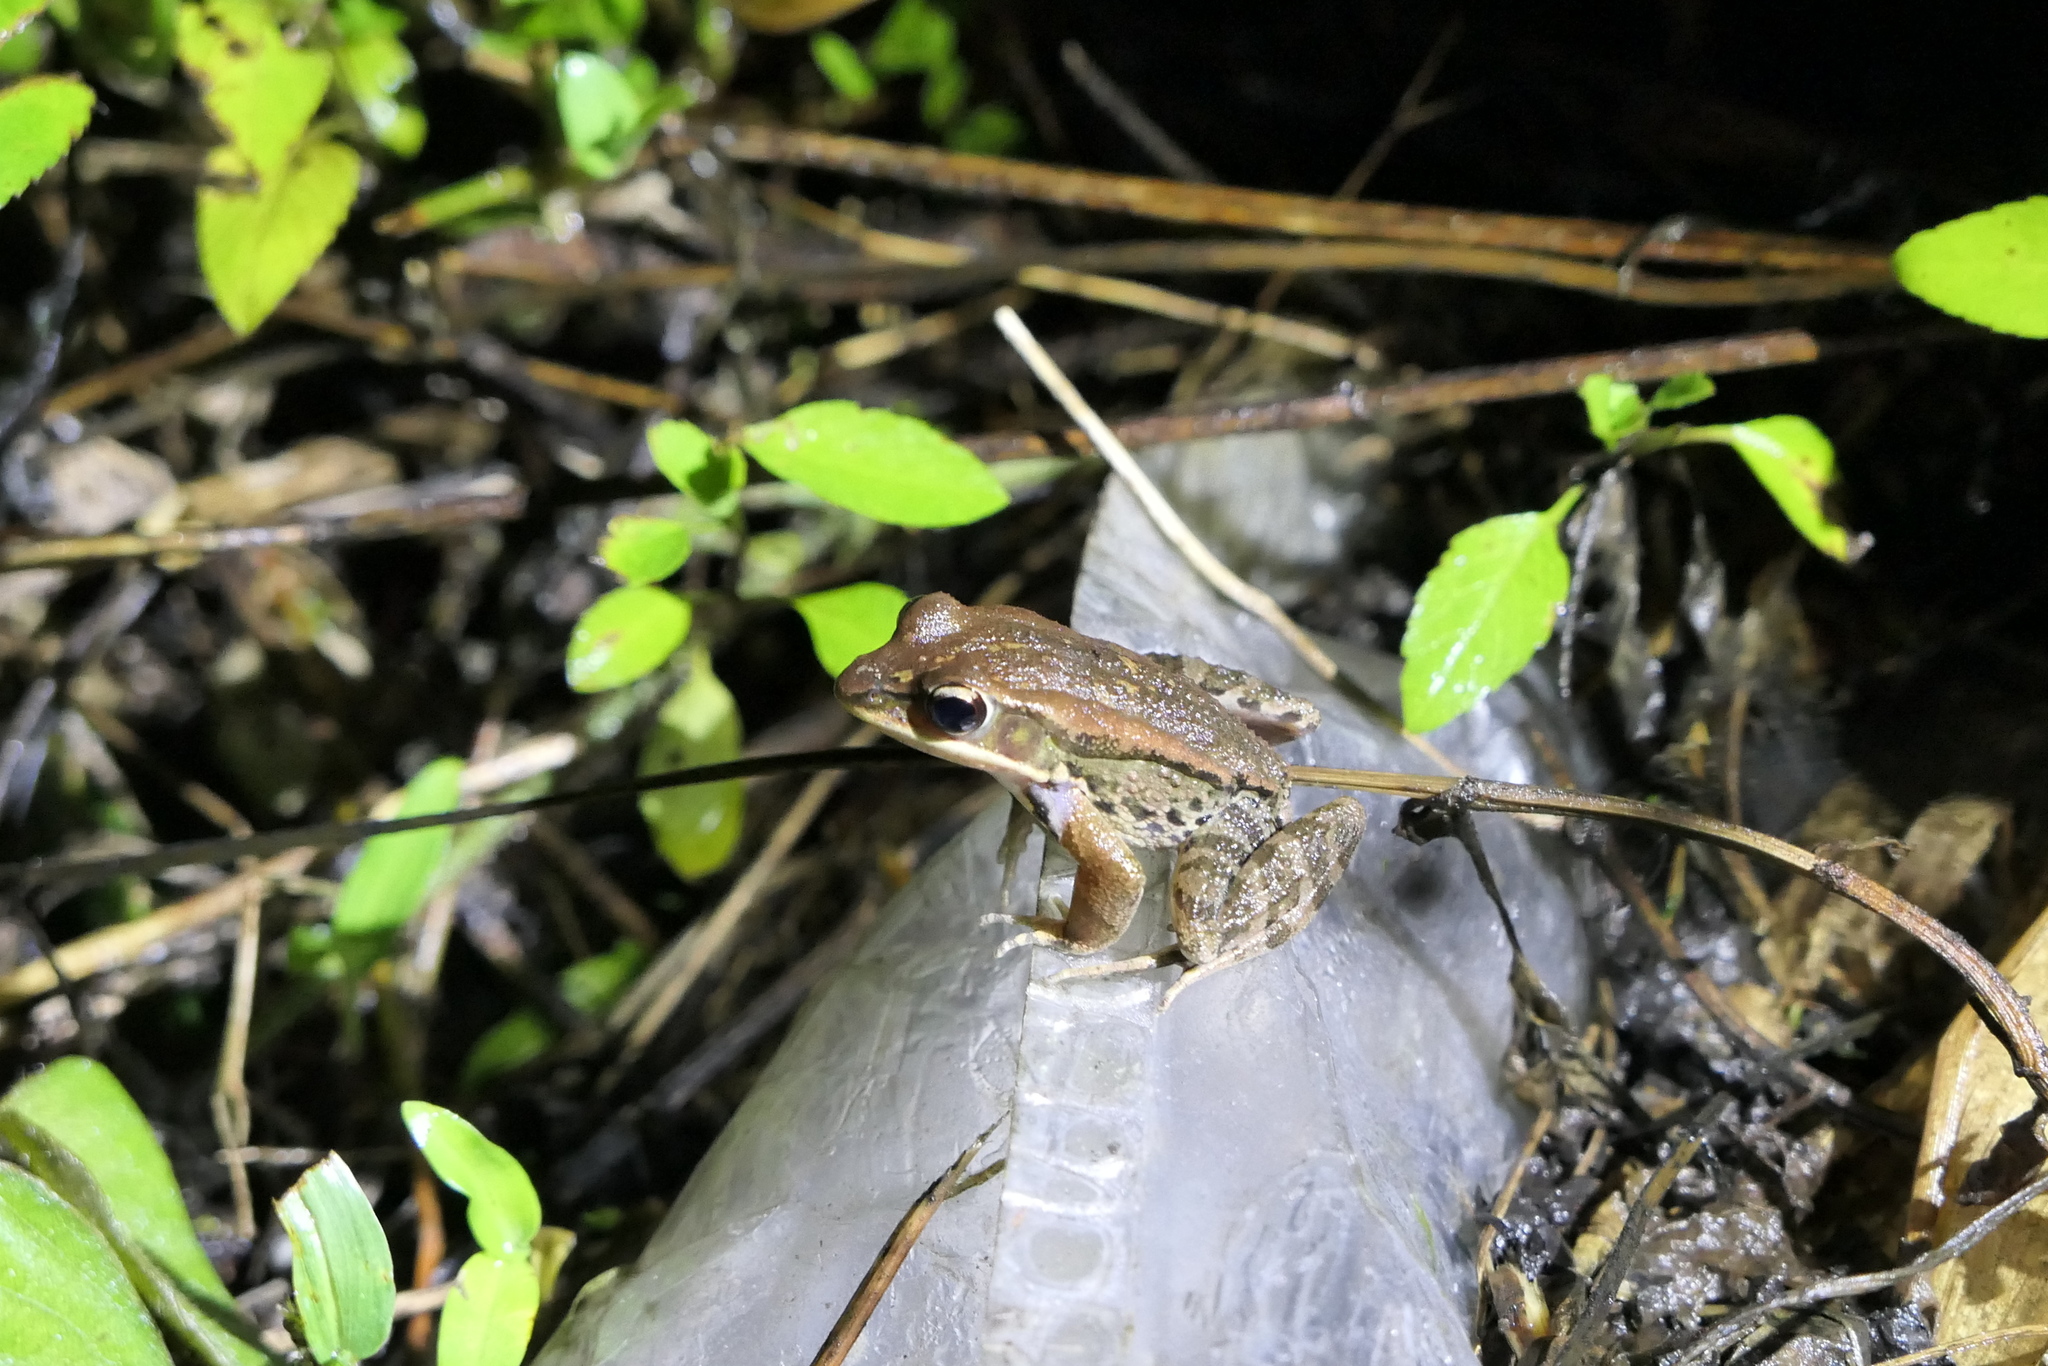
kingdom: Animalia
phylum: Chordata
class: Amphibia
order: Anura
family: Ranidae
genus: Hylarana
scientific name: Hylarana latouchii
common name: Broad-folded frog
